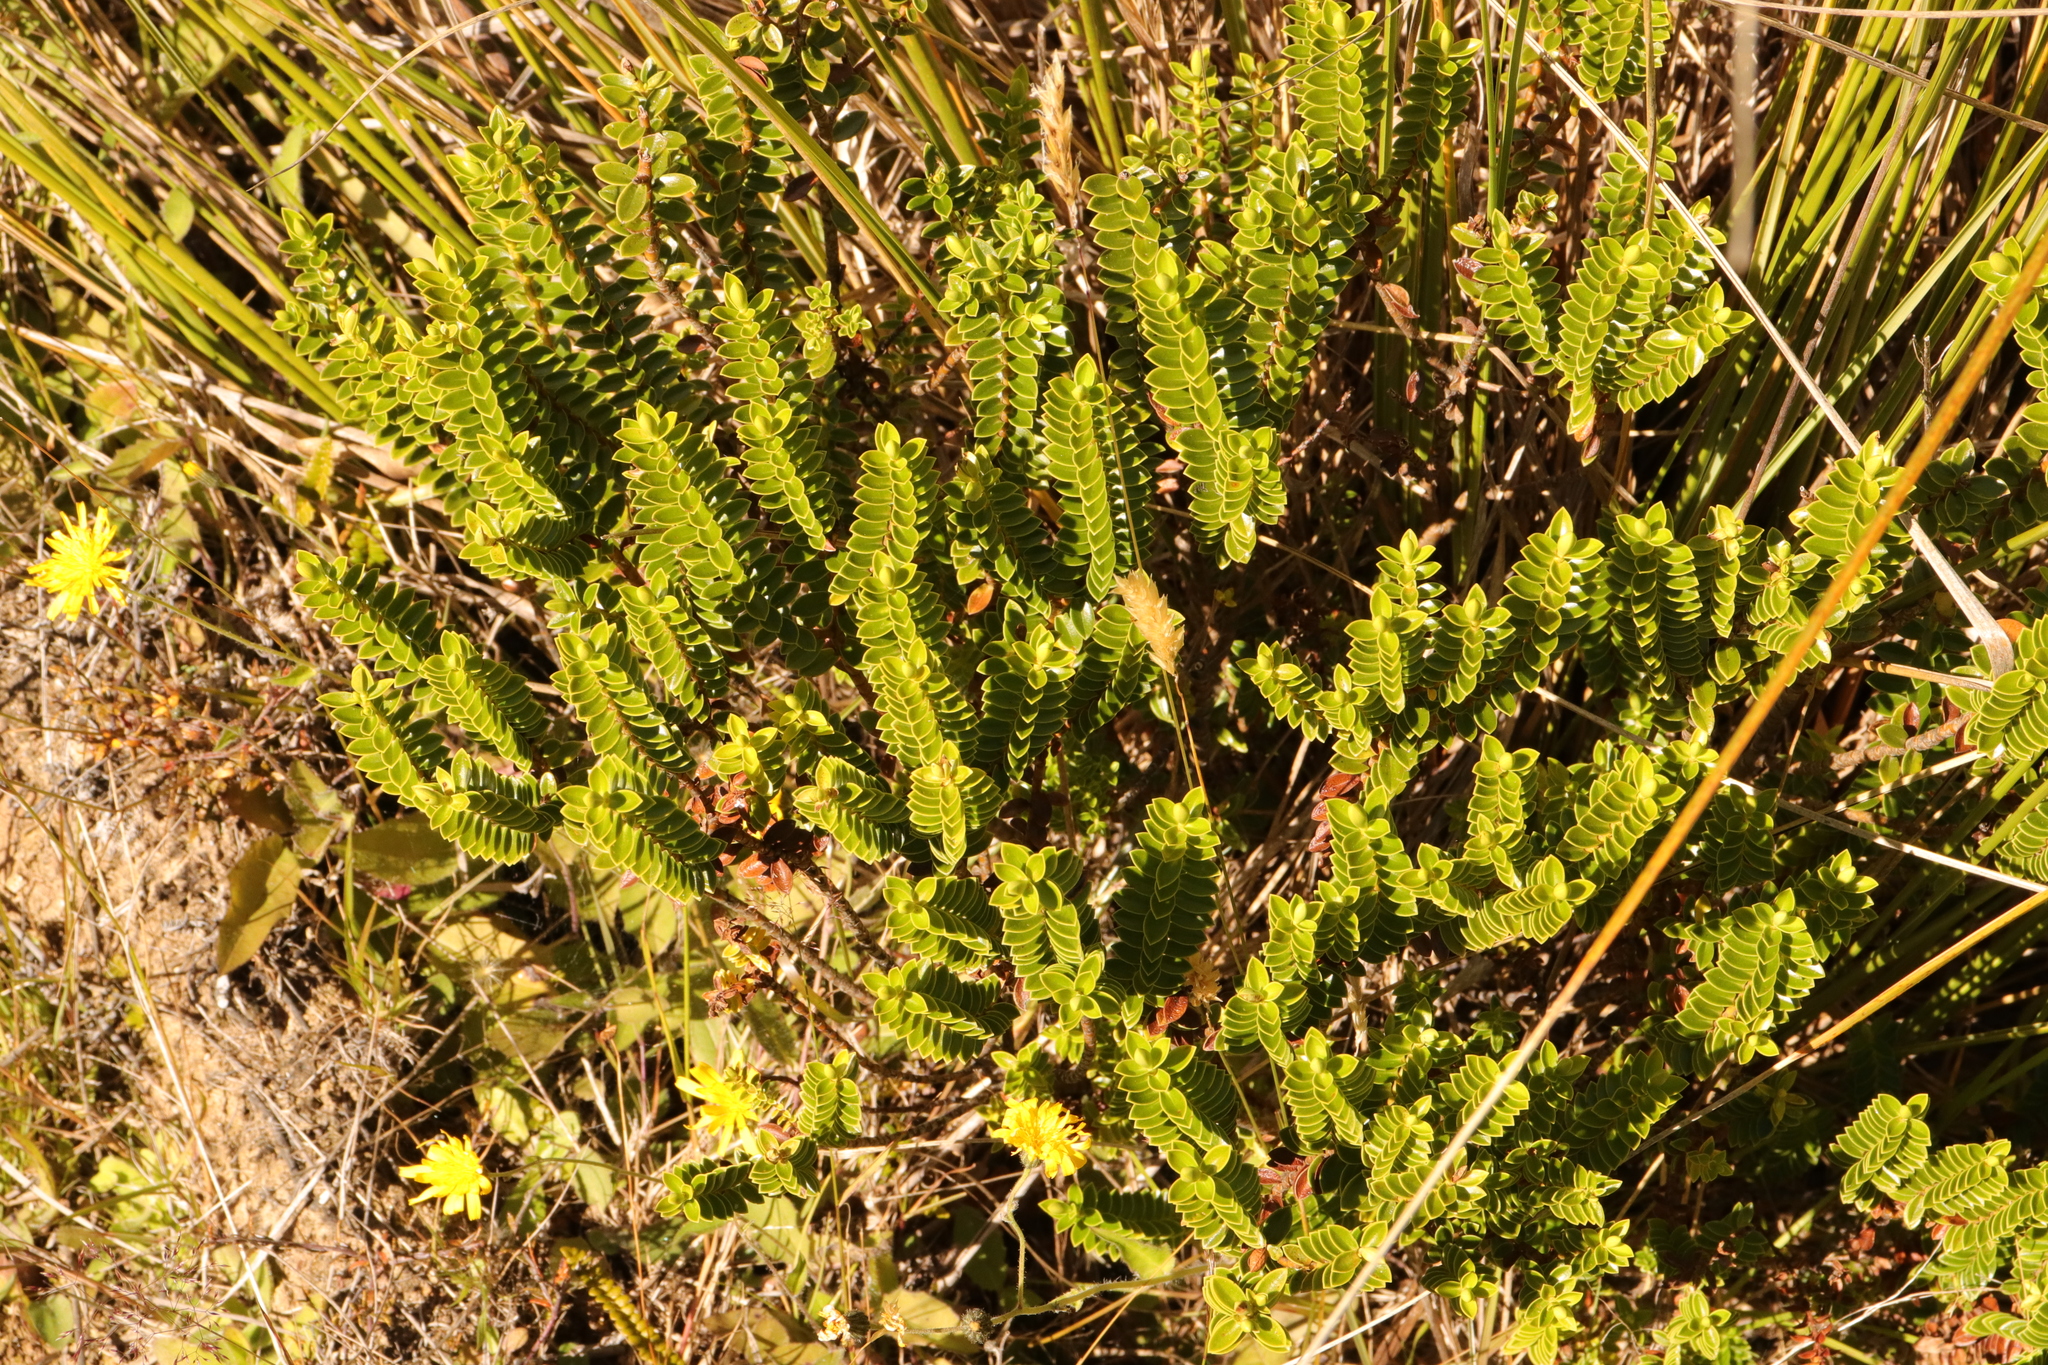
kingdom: Plantae
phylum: Tracheophyta
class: Magnoliopsida
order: Lamiales
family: Plantaginaceae
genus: Veronica
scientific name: Veronica odora
